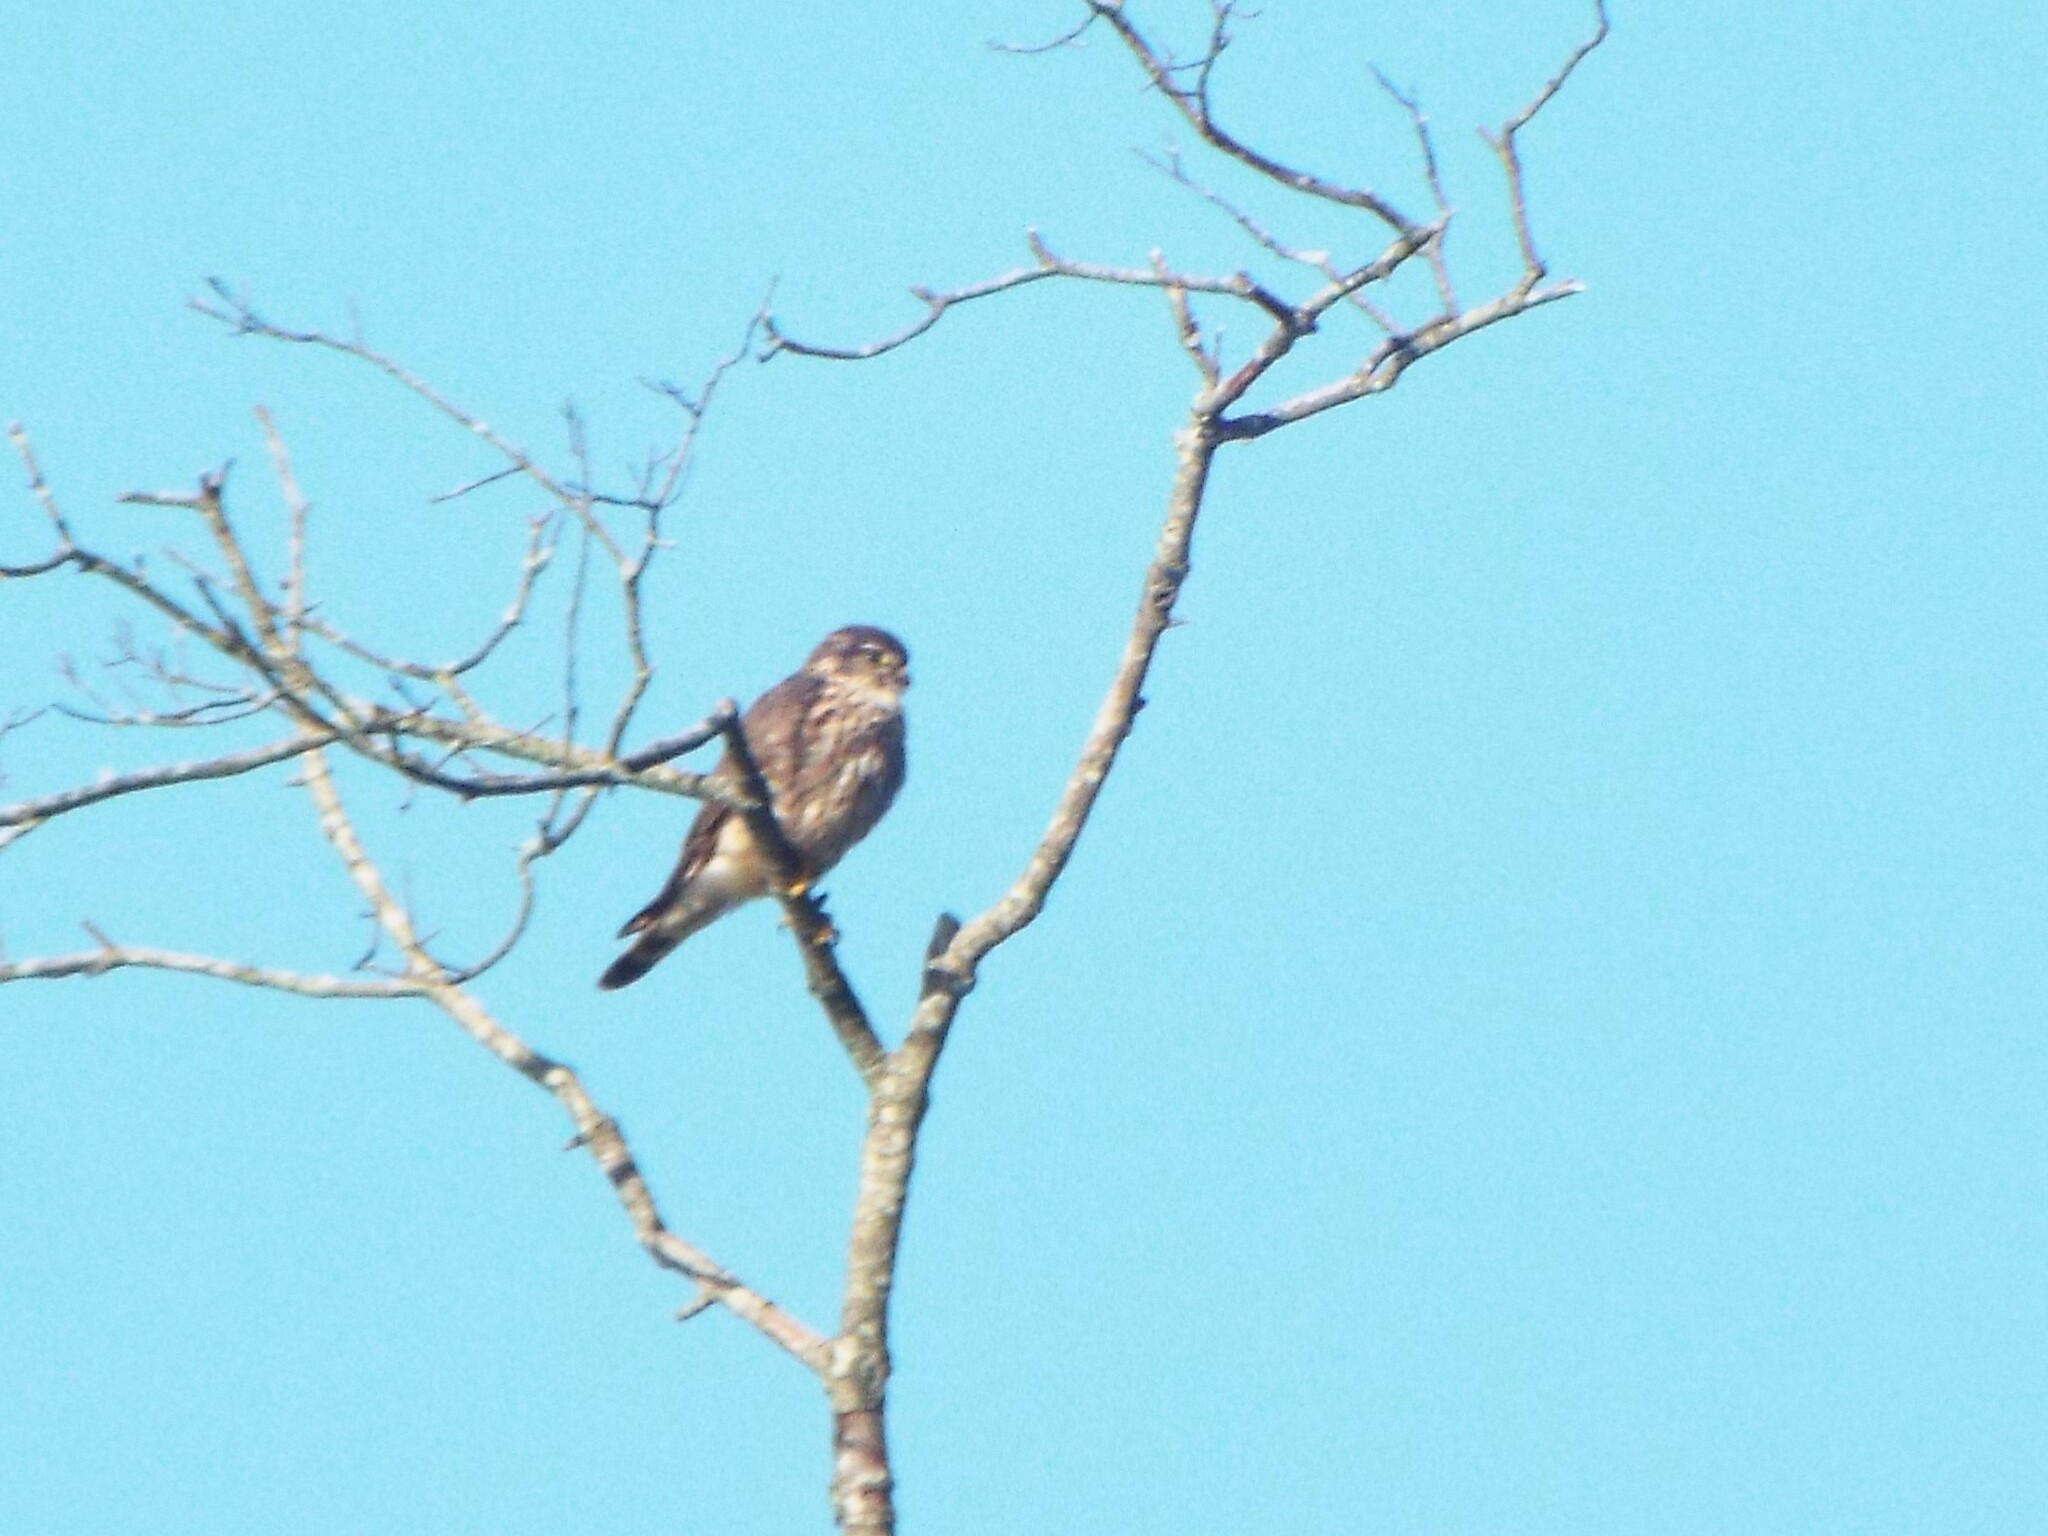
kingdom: Animalia
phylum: Chordata
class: Aves
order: Falconiformes
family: Falconidae
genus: Falco
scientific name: Falco columbarius
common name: Merlin
